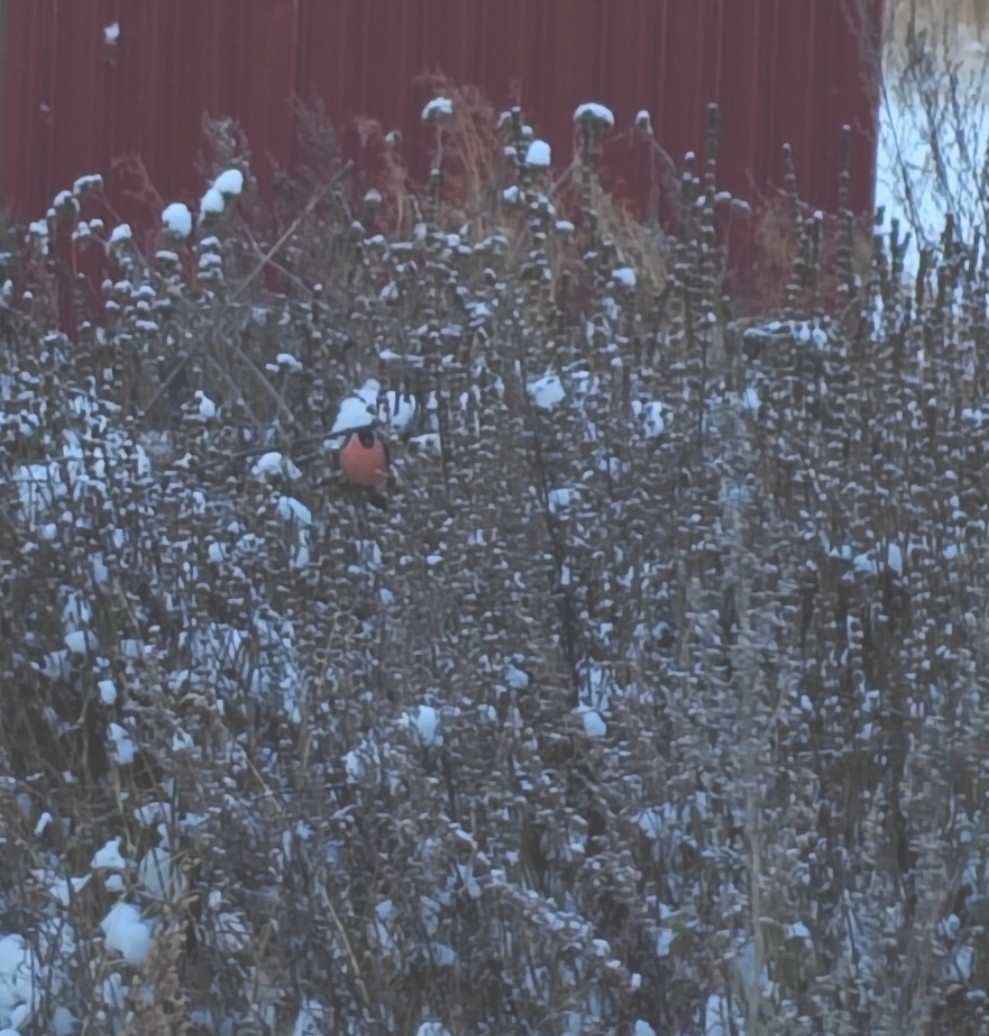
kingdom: Animalia
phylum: Chordata
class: Aves
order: Passeriformes
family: Fringillidae
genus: Pyrrhula
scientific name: Pyrrhula pyrrhula
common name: Eurasian bullfinch
